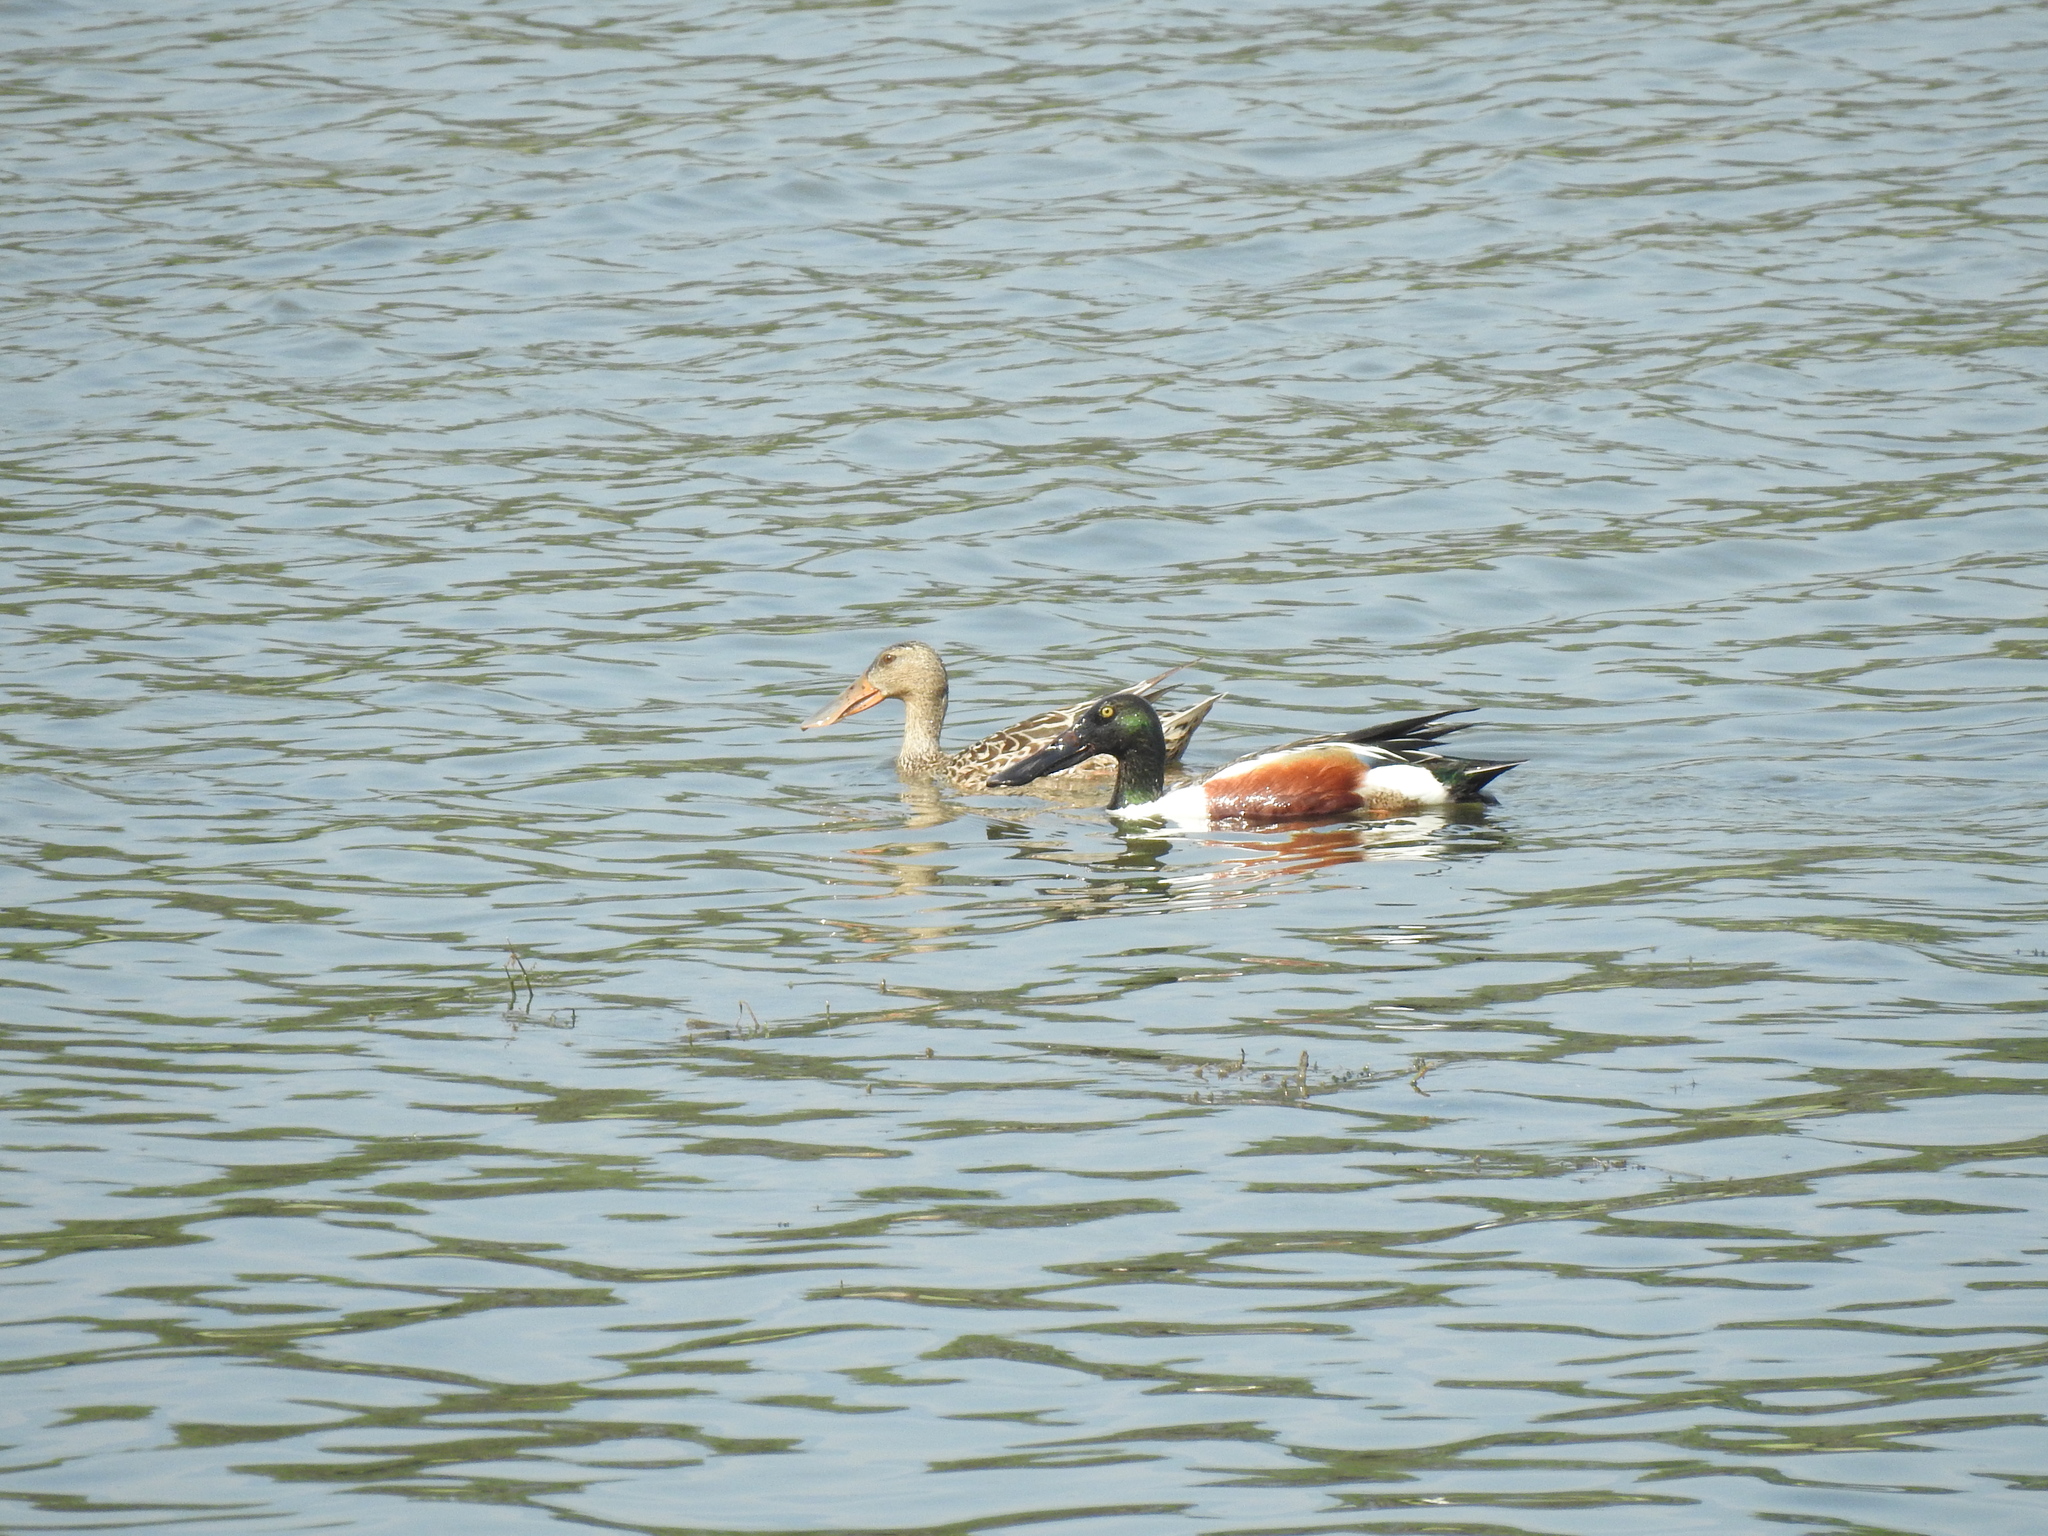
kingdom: Animalia
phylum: Chordata
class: Aves
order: Anseriformes
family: Anatidae
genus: Spatula
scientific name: Spatula clypeata
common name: Northern shoveler
